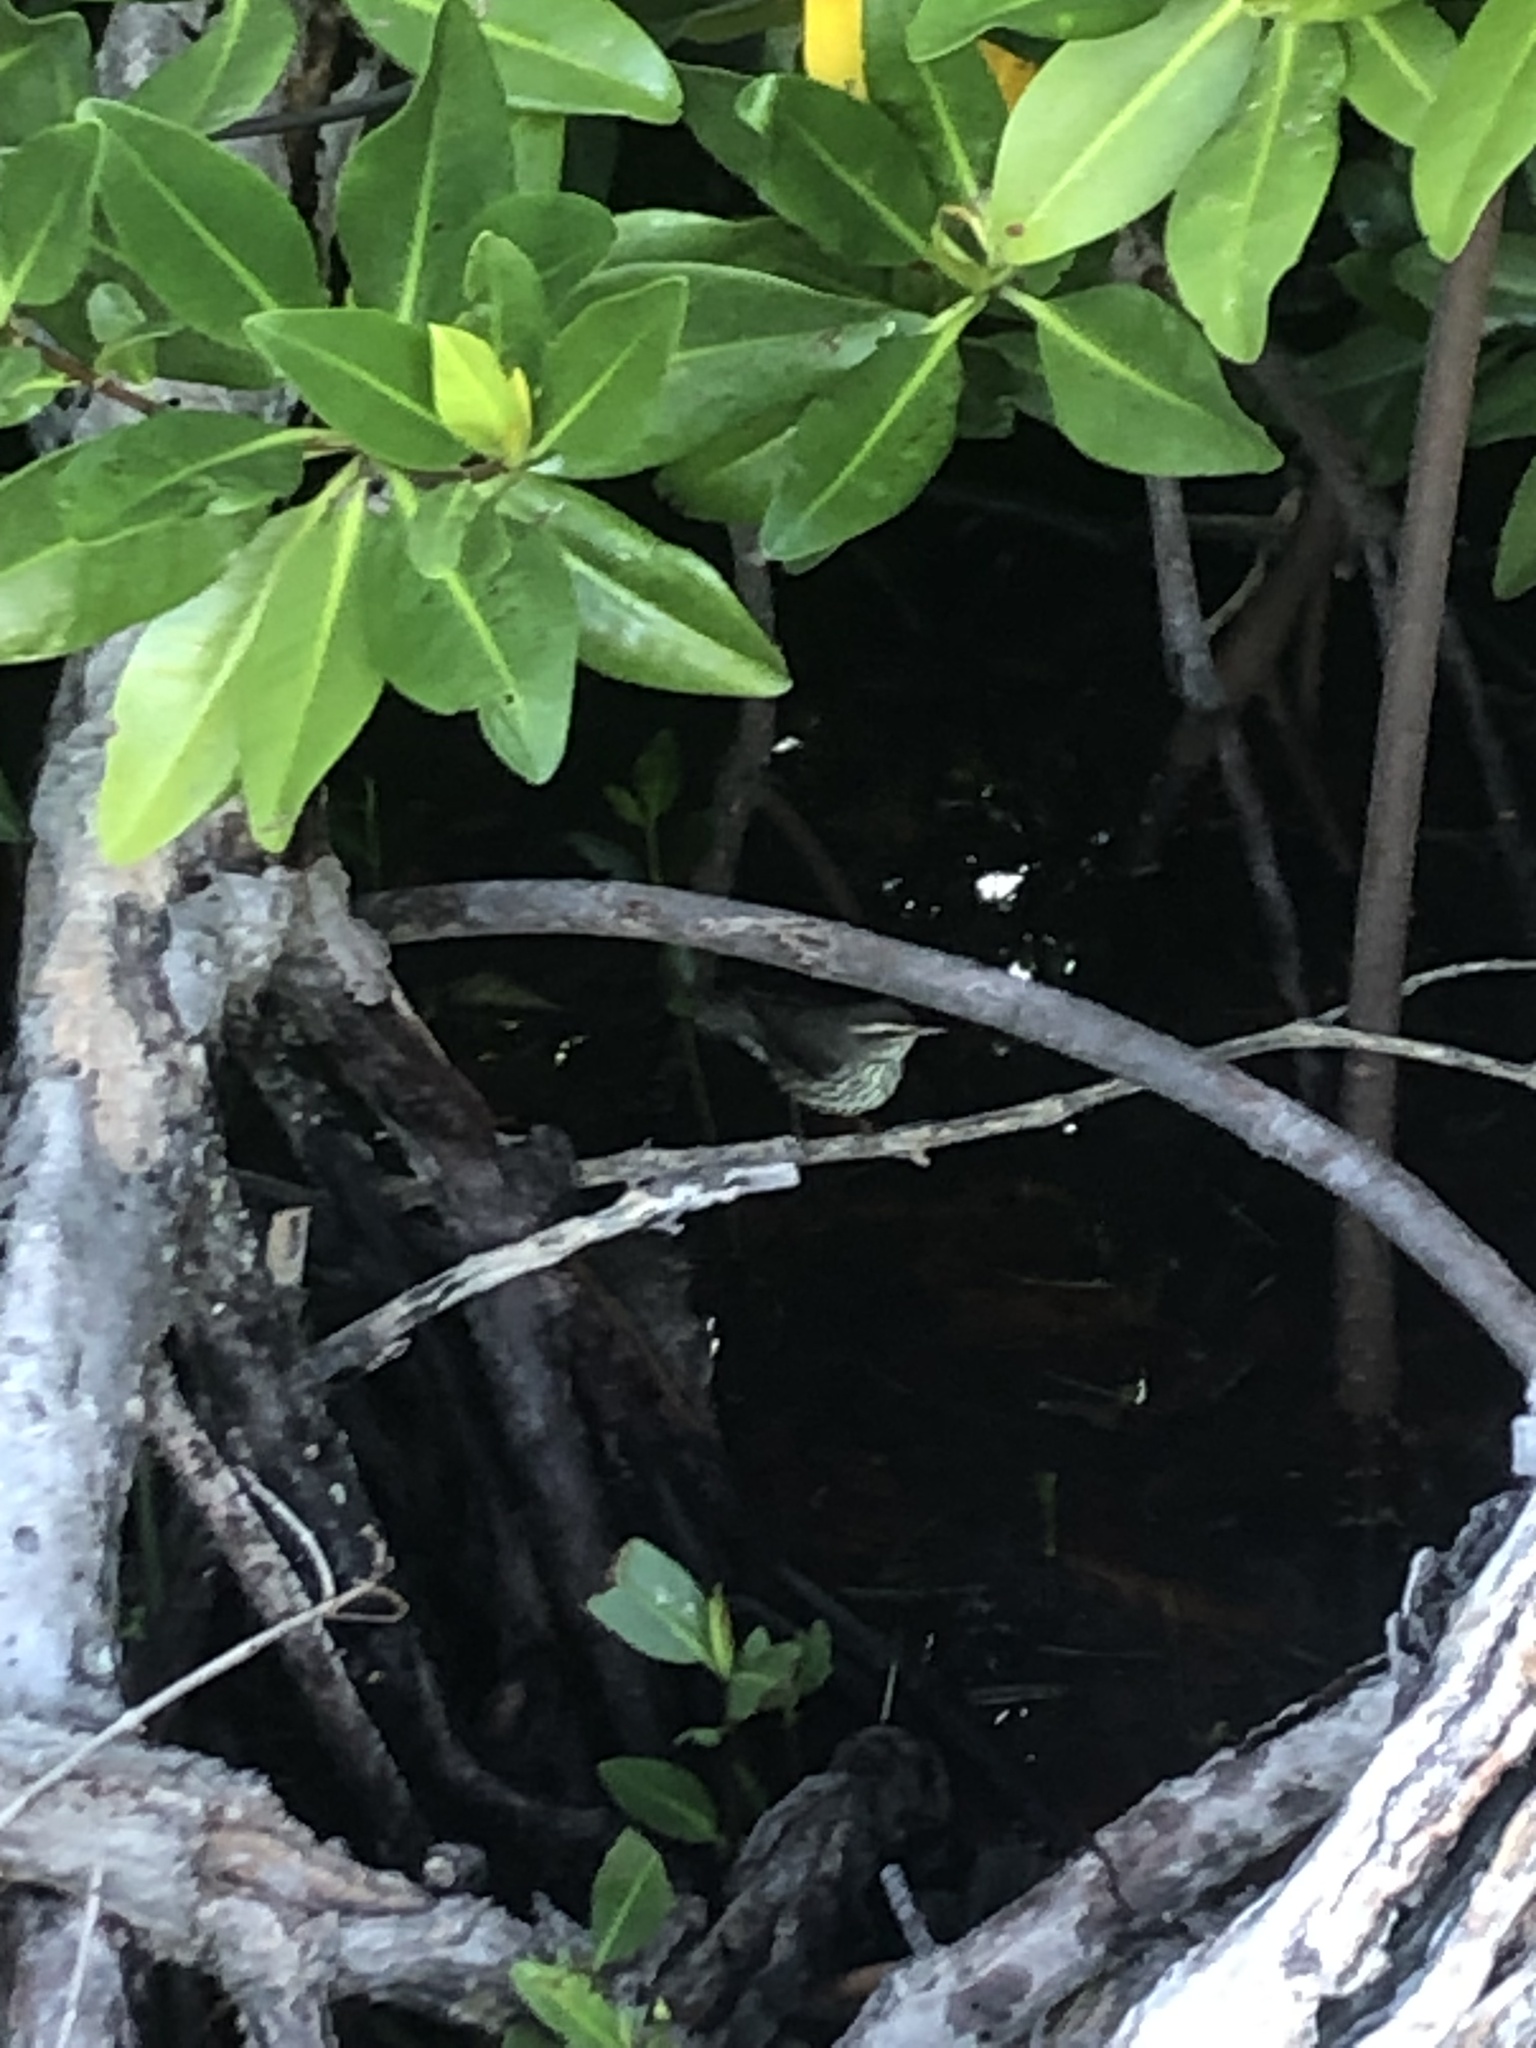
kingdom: Animalia
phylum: Chordata
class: Aves
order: Passeriformes
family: Parulidae
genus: Parkesia
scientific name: Parkesia noveboracensis
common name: Northern waterthrush
